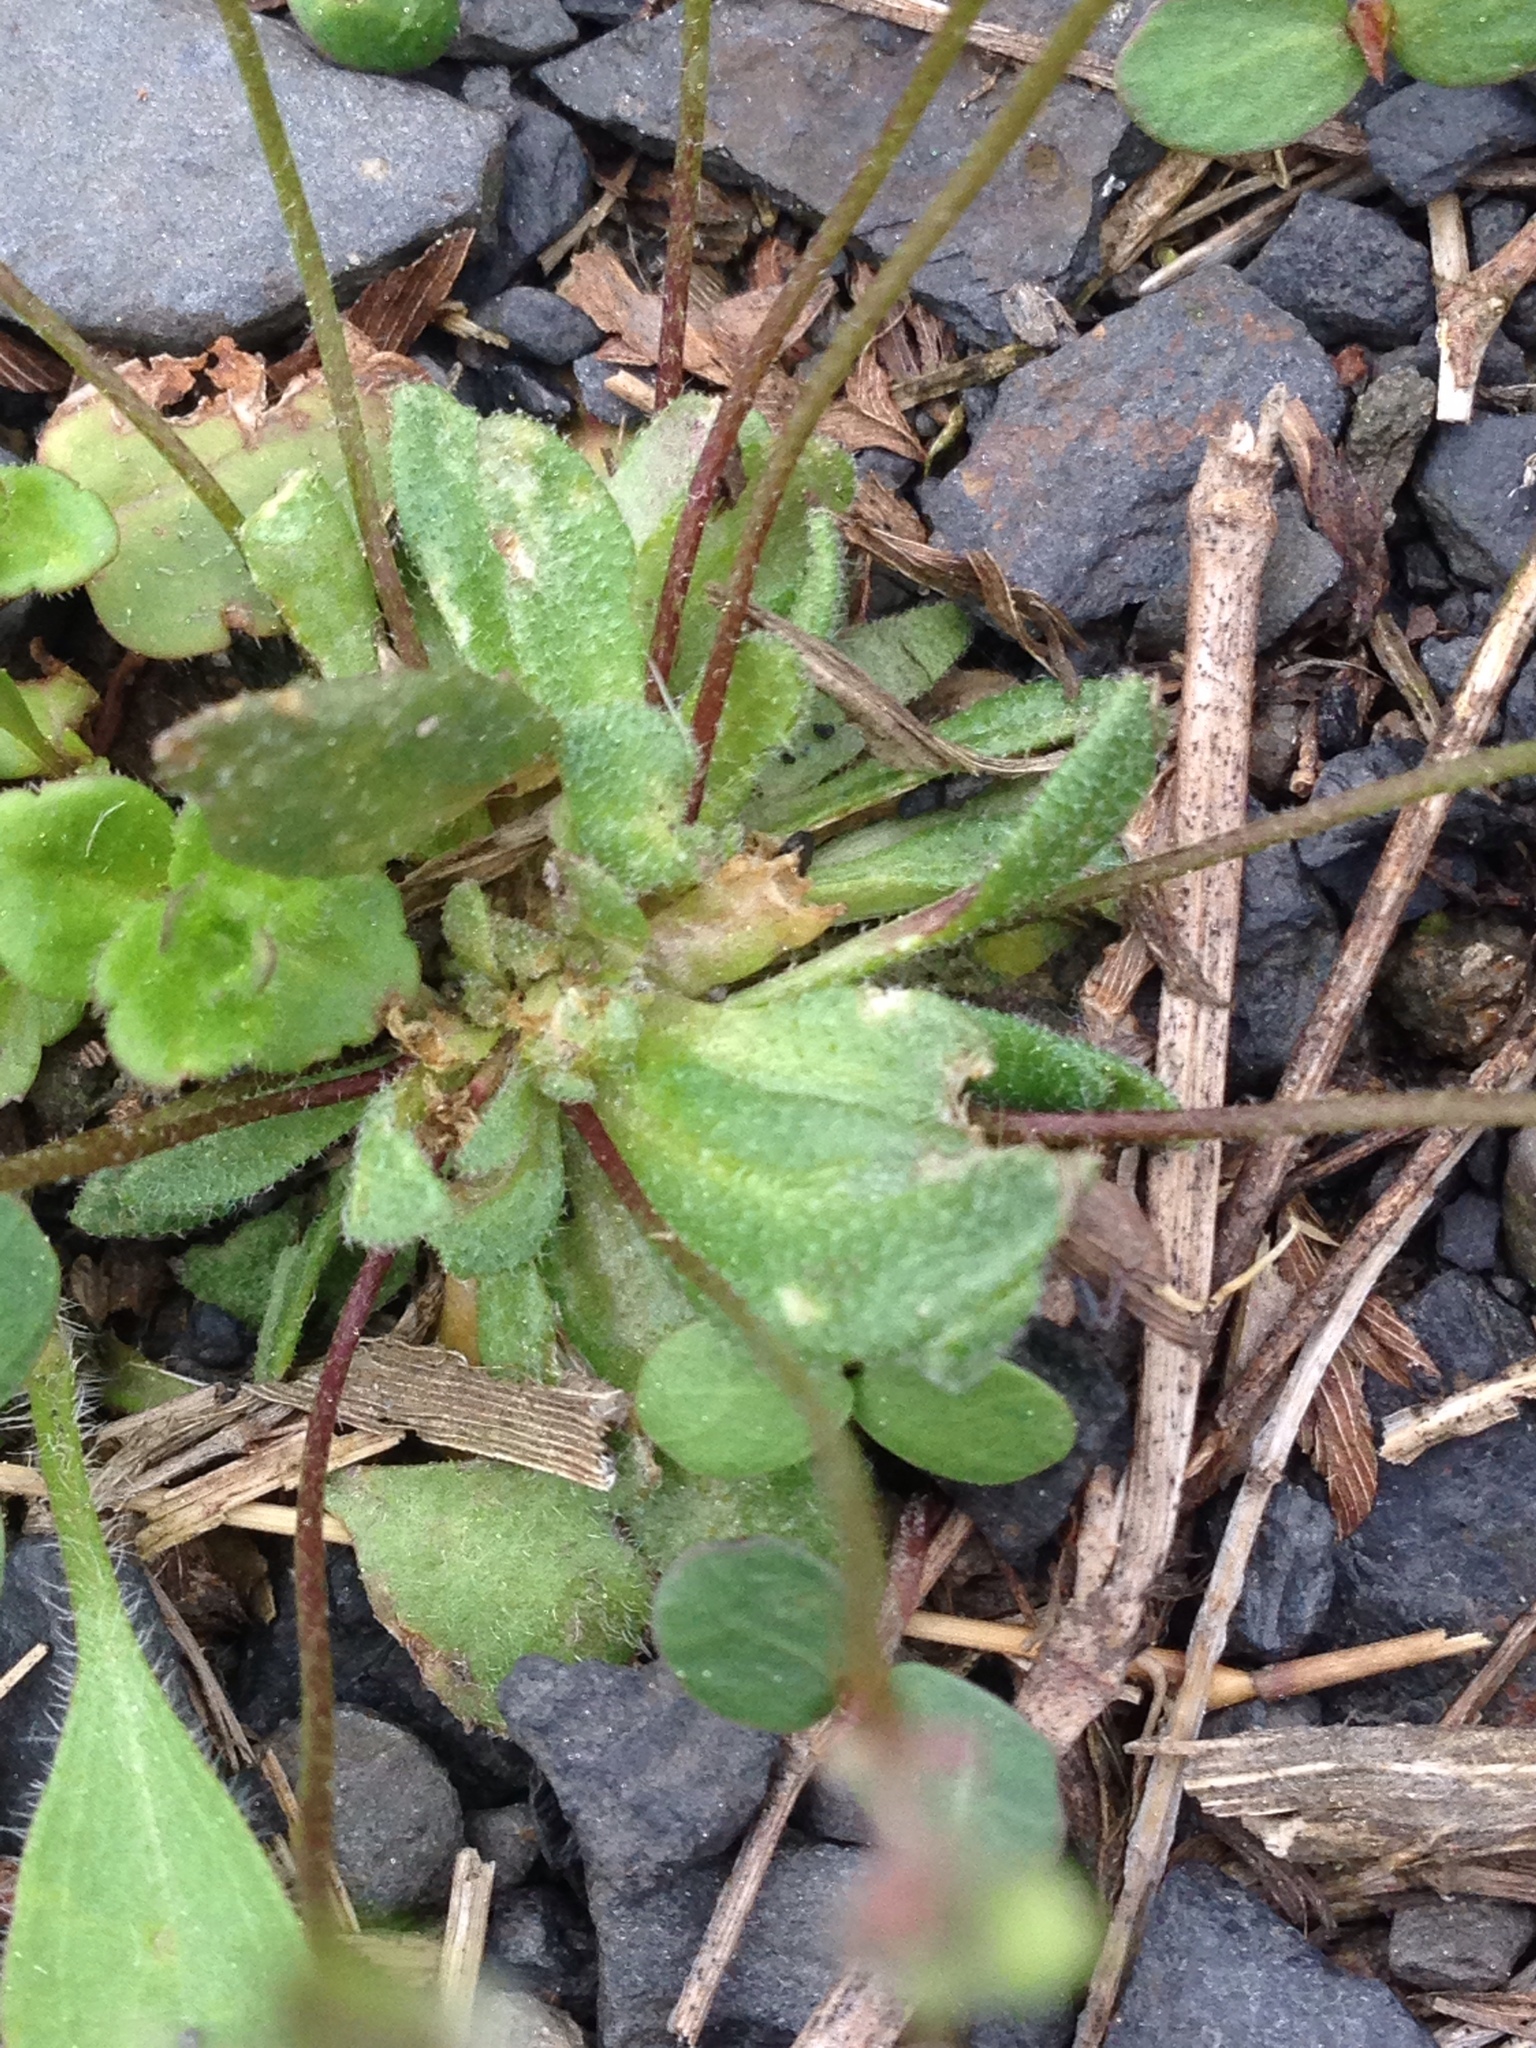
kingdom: Plantae
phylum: Tracheophyta
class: Magnoliopsida
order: Brassicales
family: Brassicaceae
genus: Draba
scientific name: Draba verna
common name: Spring draba
